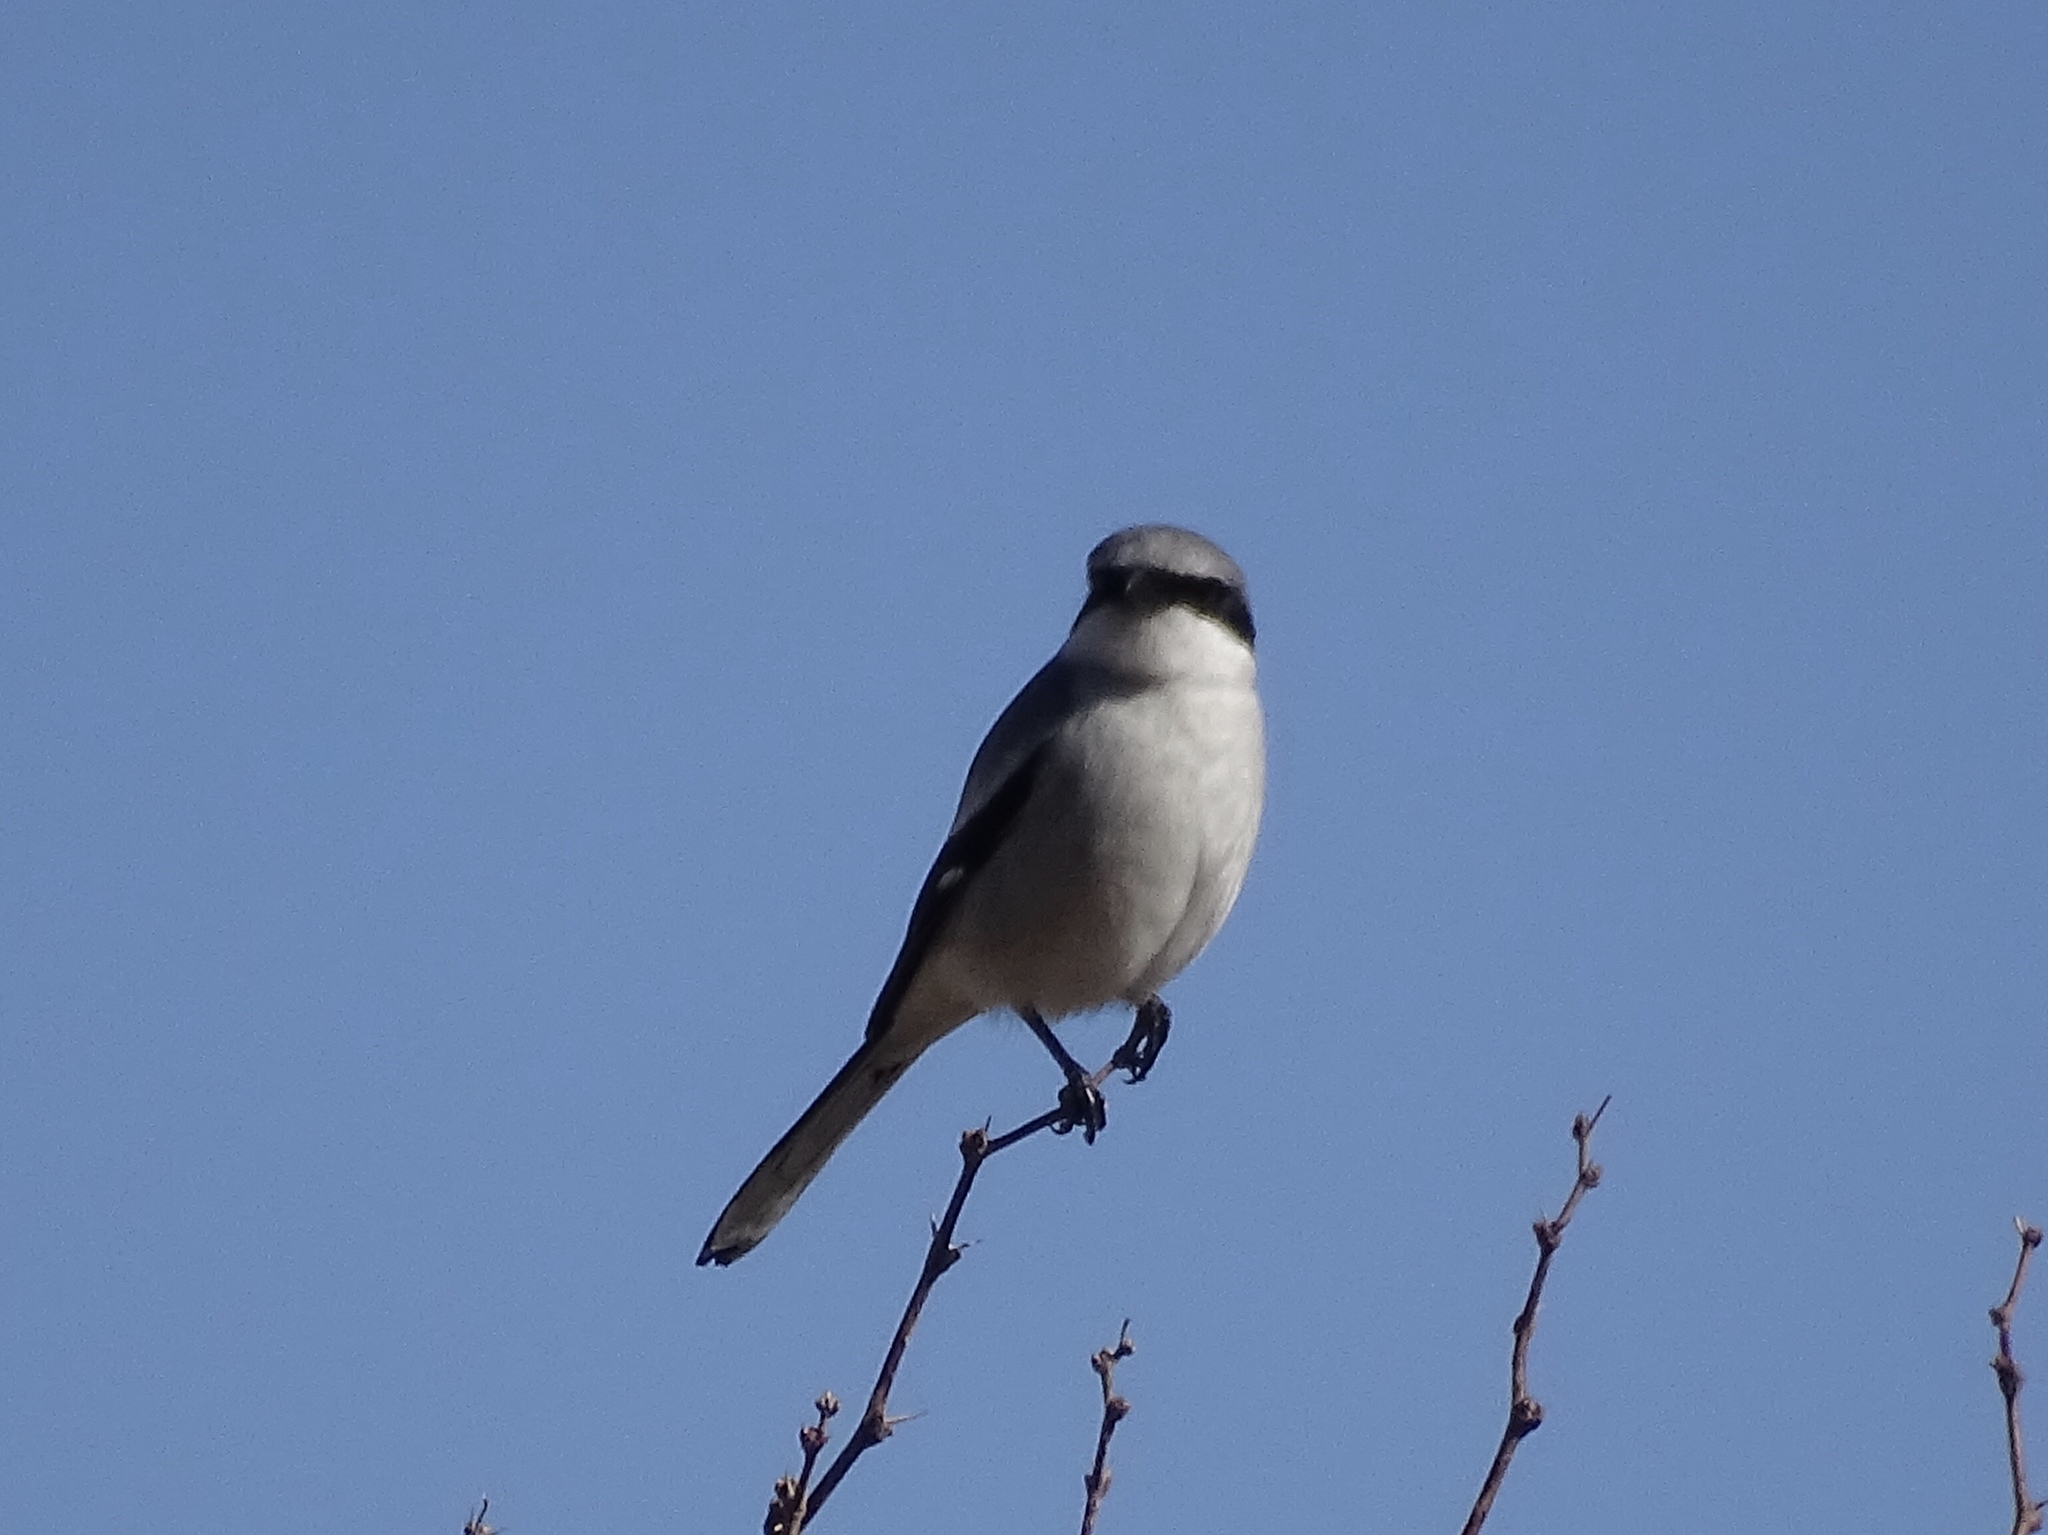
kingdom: Animalia
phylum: Chordata
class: Aves
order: Passeriformes
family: Laniidae
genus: Lanius
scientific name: Lanius ludovicianus
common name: Loggerhead shrike
